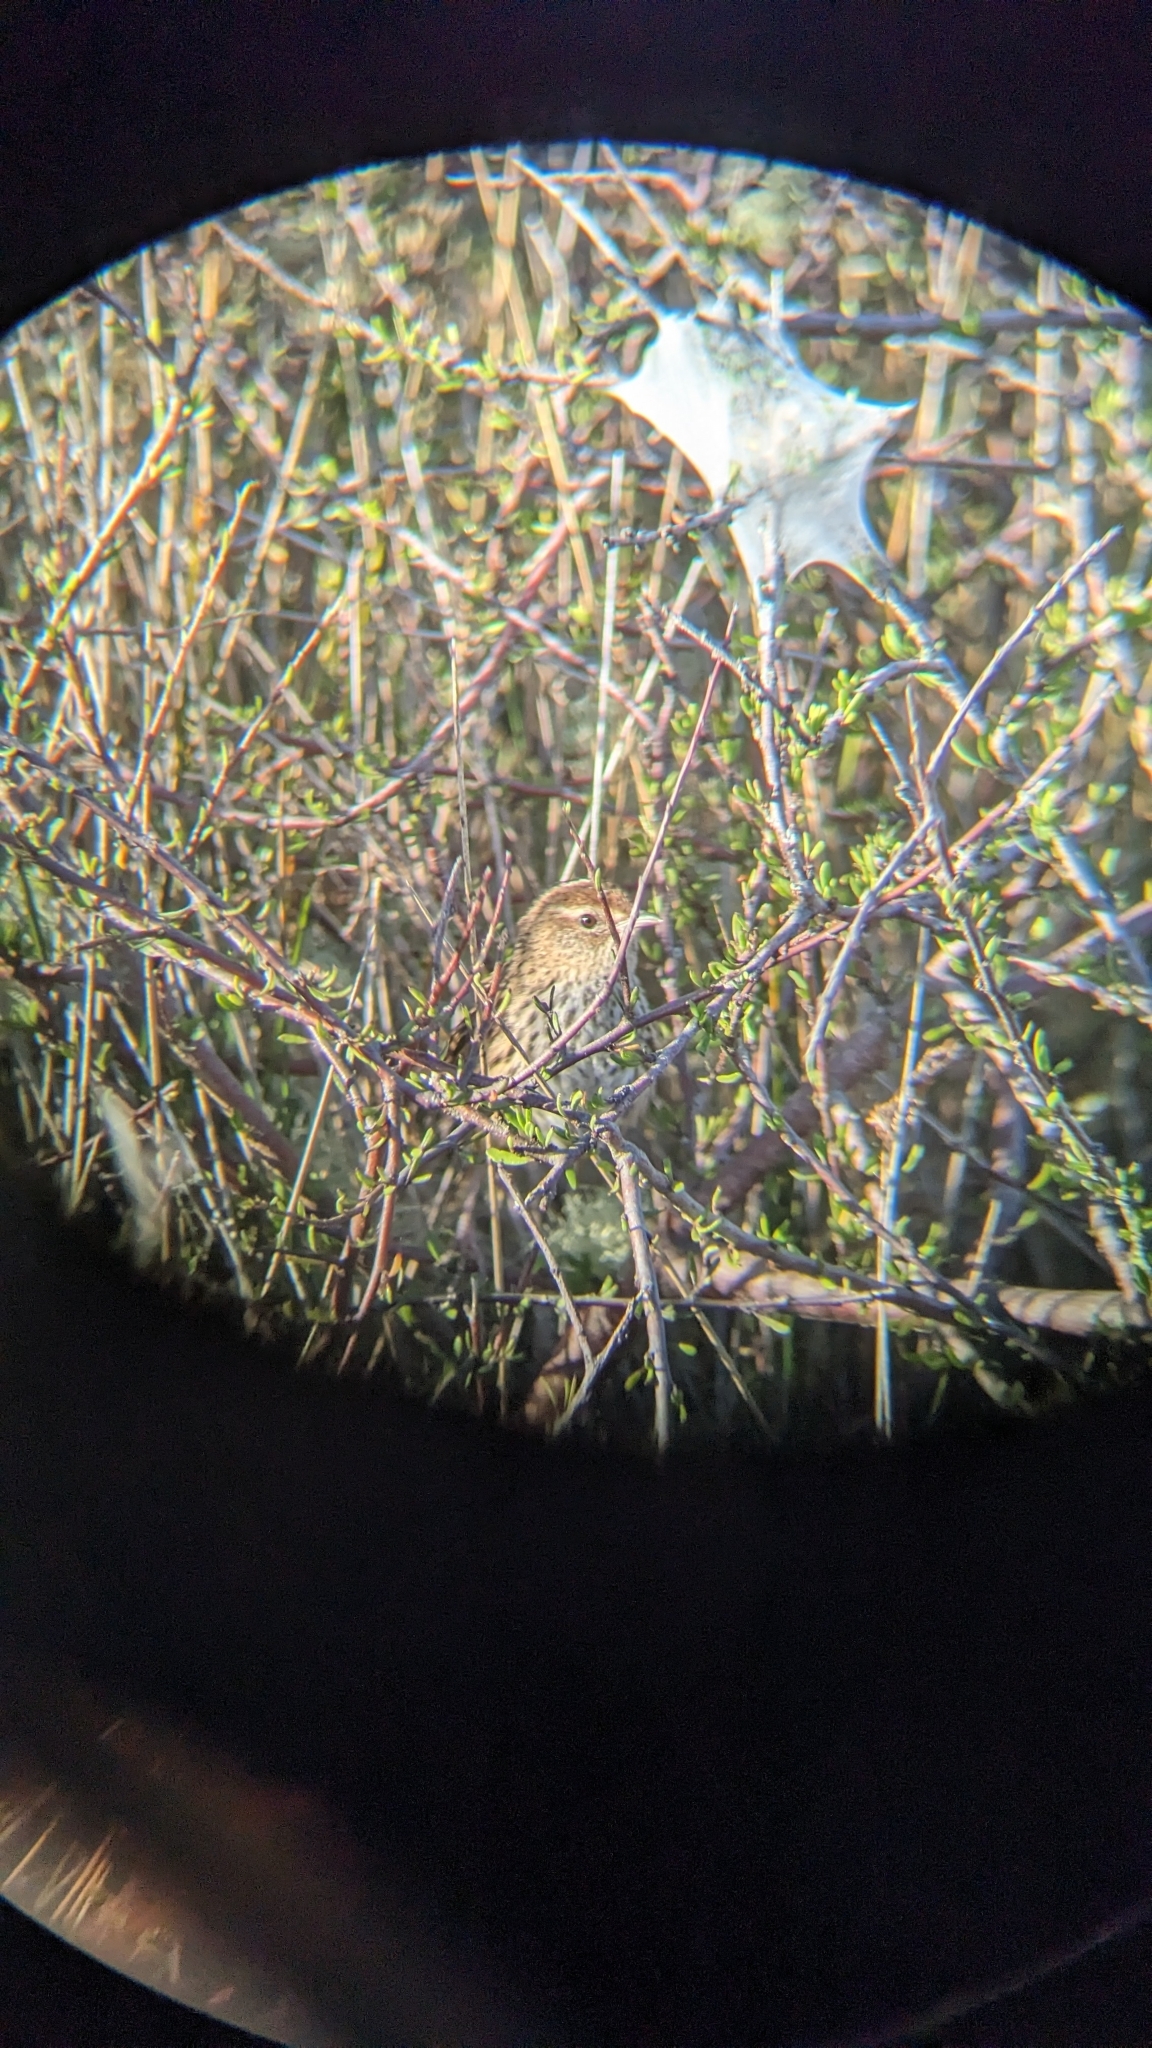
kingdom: Animalia
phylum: Chordata
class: Aves
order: Passeriformes
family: Locustellidae
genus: Megalurus
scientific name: Megalurus punctatus
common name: New zealand fernbird
